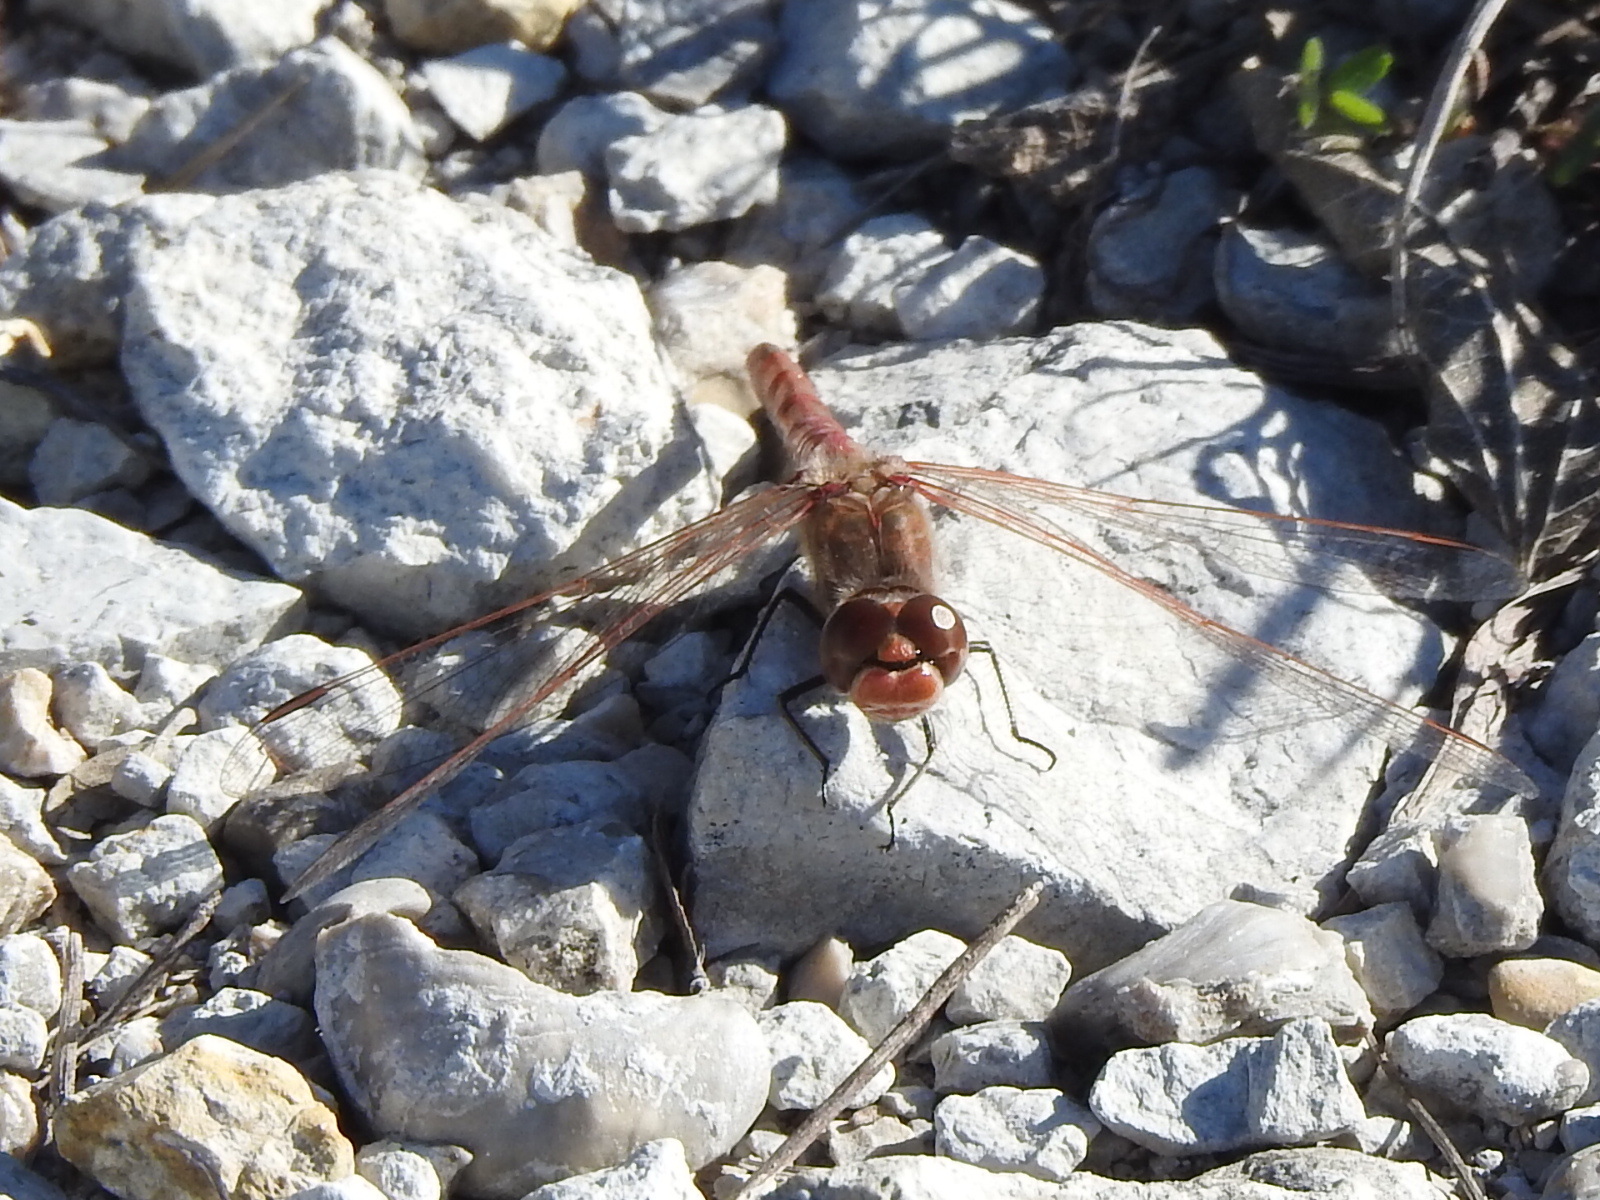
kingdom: Animalia
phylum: Arthropoda
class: Insecta
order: Odonata
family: Libellulidae
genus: Sympetrum
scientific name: Sympetrum corruptum
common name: Variegated meadowhawk
